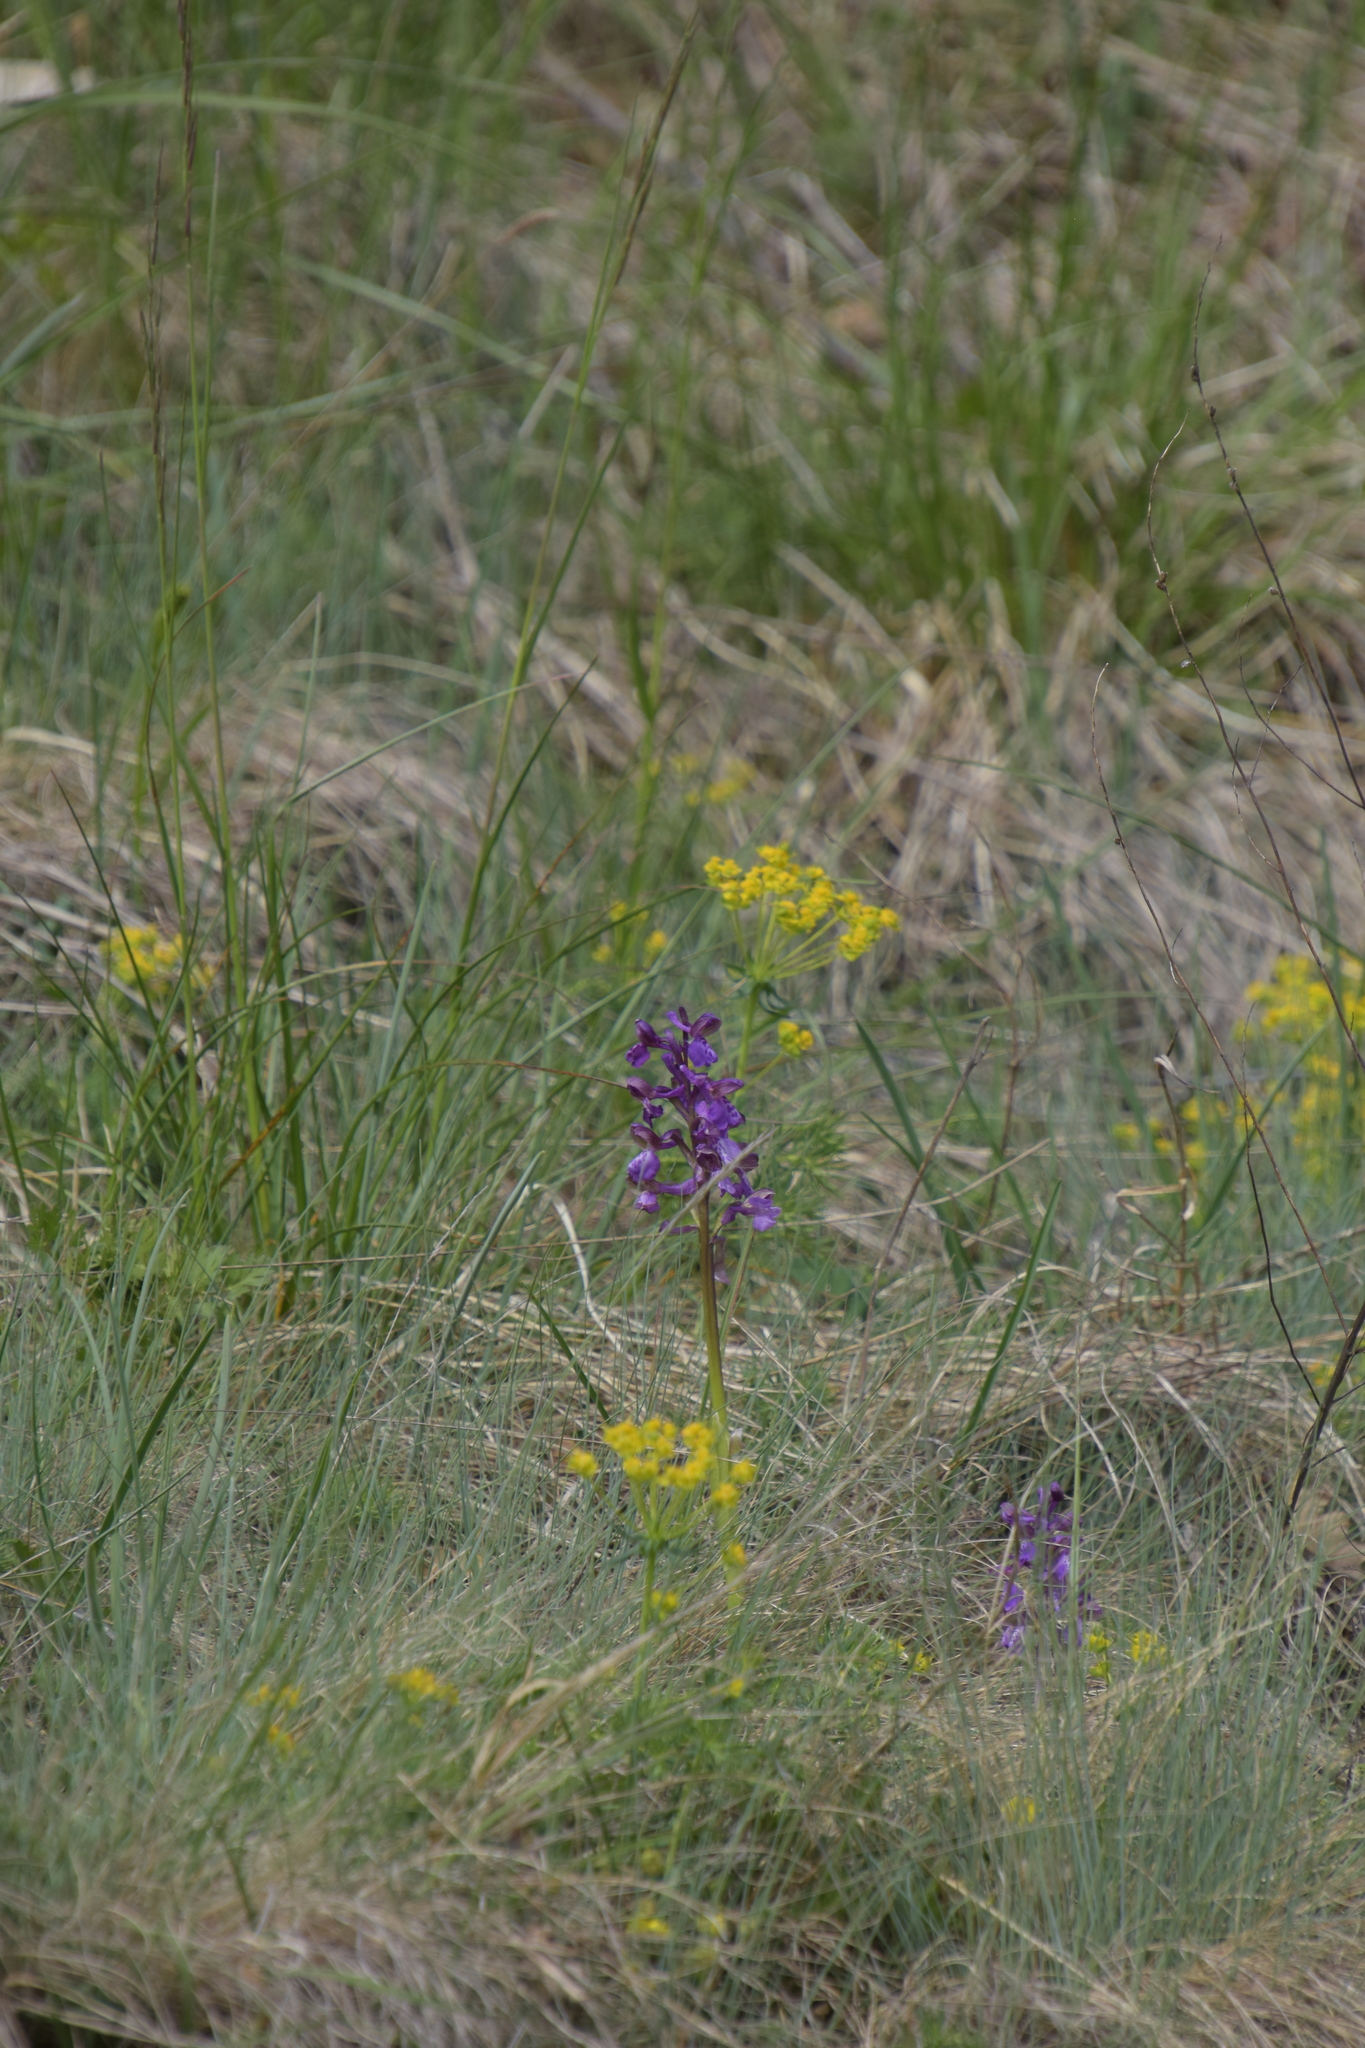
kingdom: Plantae
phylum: Tracheophyta
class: Liliopsida
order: Asparagales
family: Orchidaceae
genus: Anacamptis
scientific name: Anacamptis morio
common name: Green-winged orchid
